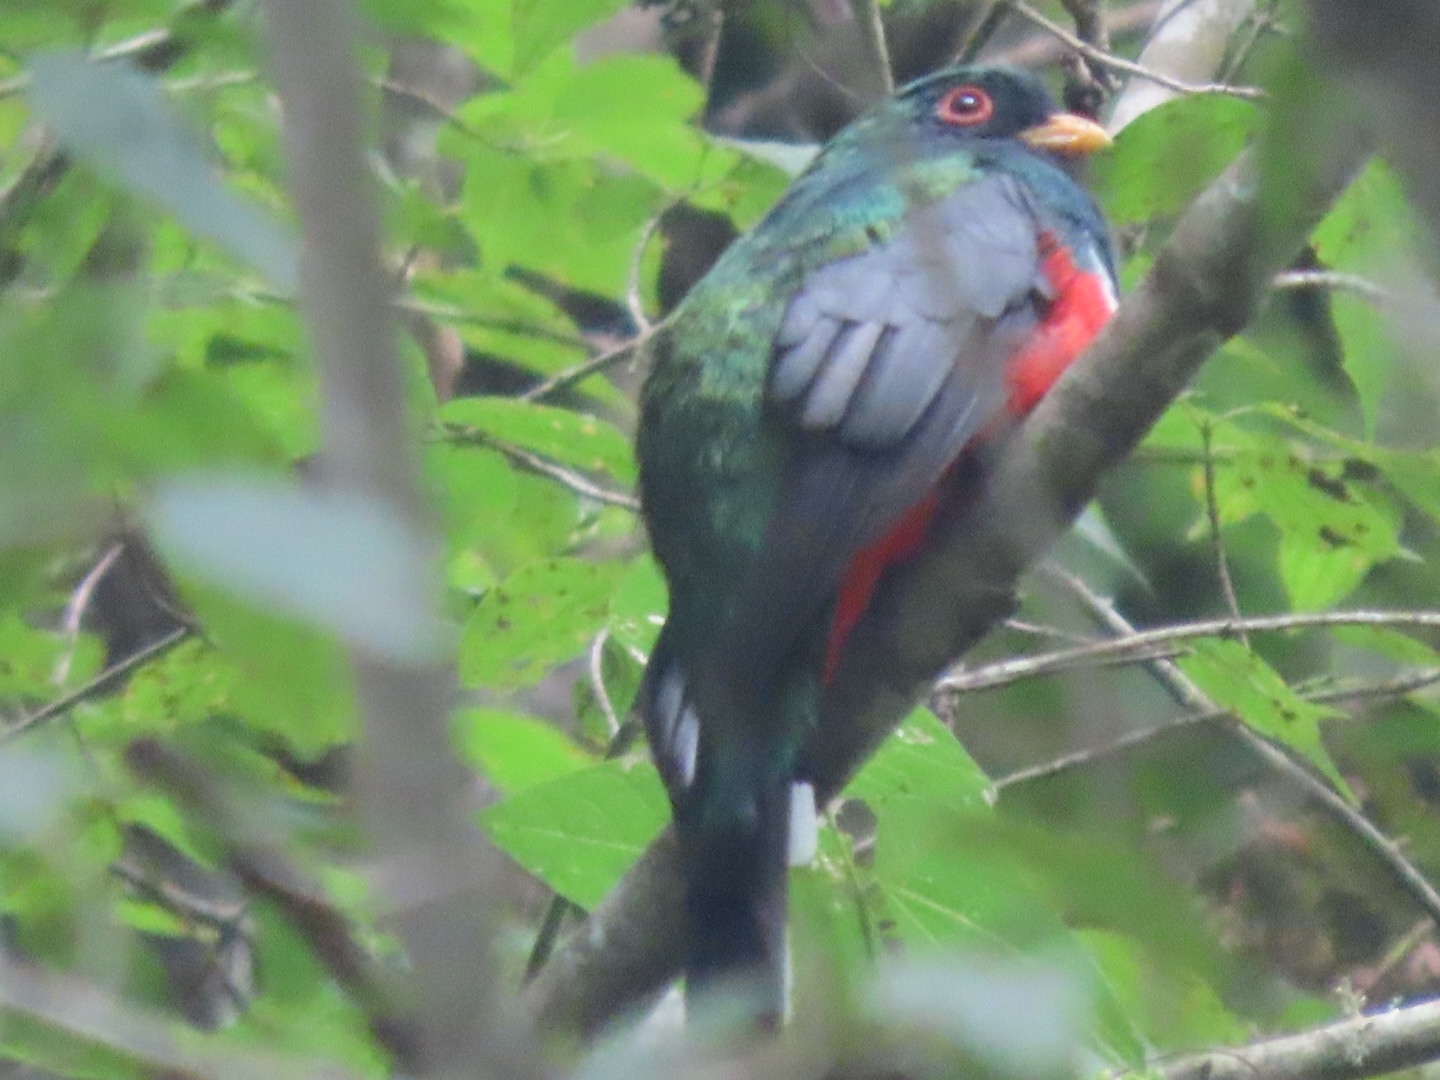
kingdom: Animalia
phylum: Chordata
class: Aves
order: Trogoniformes
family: Trogonidae
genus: Trogon
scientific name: Trogon mexicanus
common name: Mountain trogon
